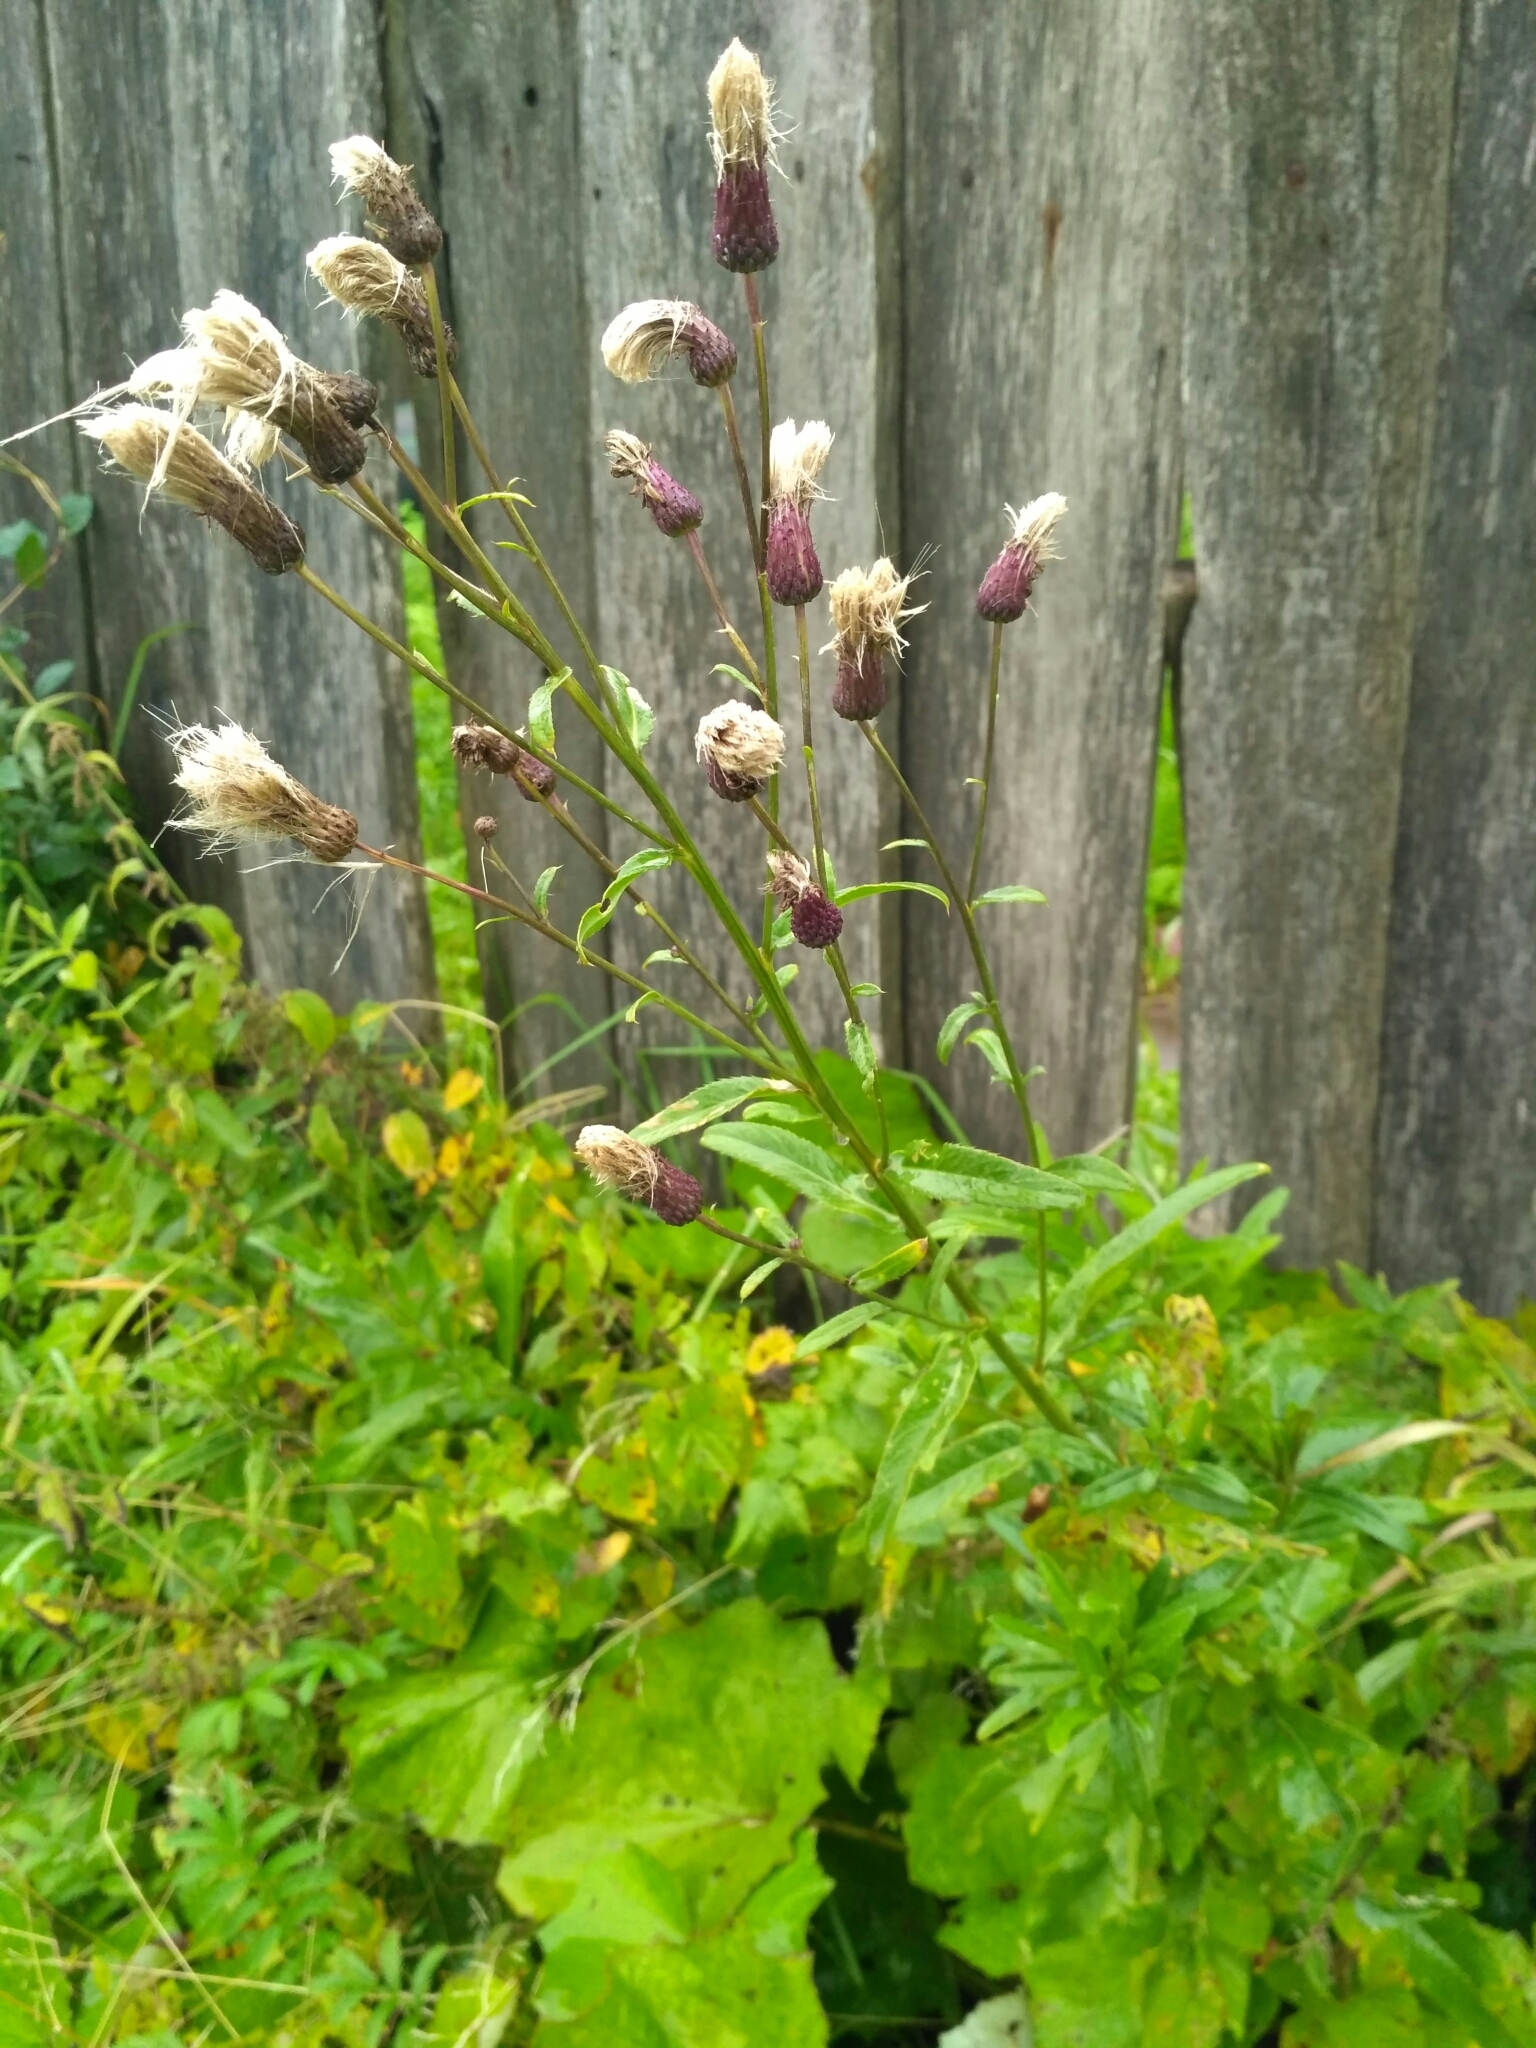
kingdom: Plantae
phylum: Tracheophyta
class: Magnoliopsida
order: Asterales
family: Asteraceae
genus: Cirsium
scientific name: Cirsium arvense
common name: Creeping thistle
